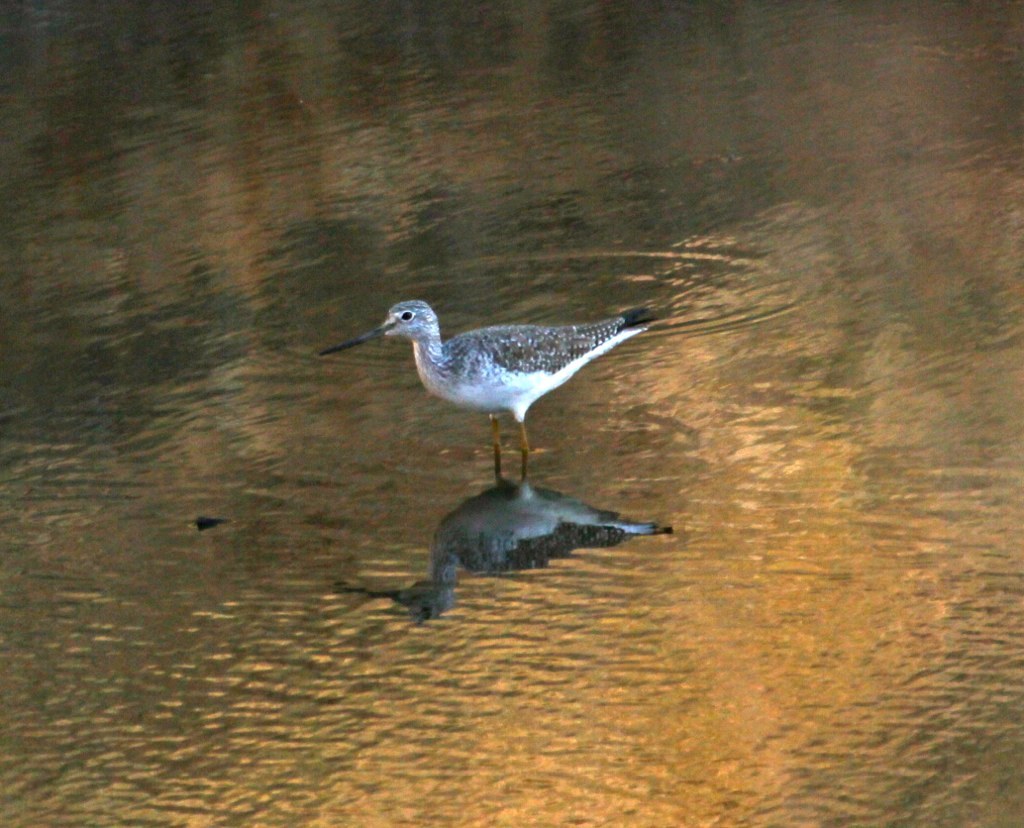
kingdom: Animalia
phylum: Chordata
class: Aves
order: Charadriiformes
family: Scolopacidae
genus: Tringa
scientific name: Tringa melanoleuca
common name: Greater yellowlegs
